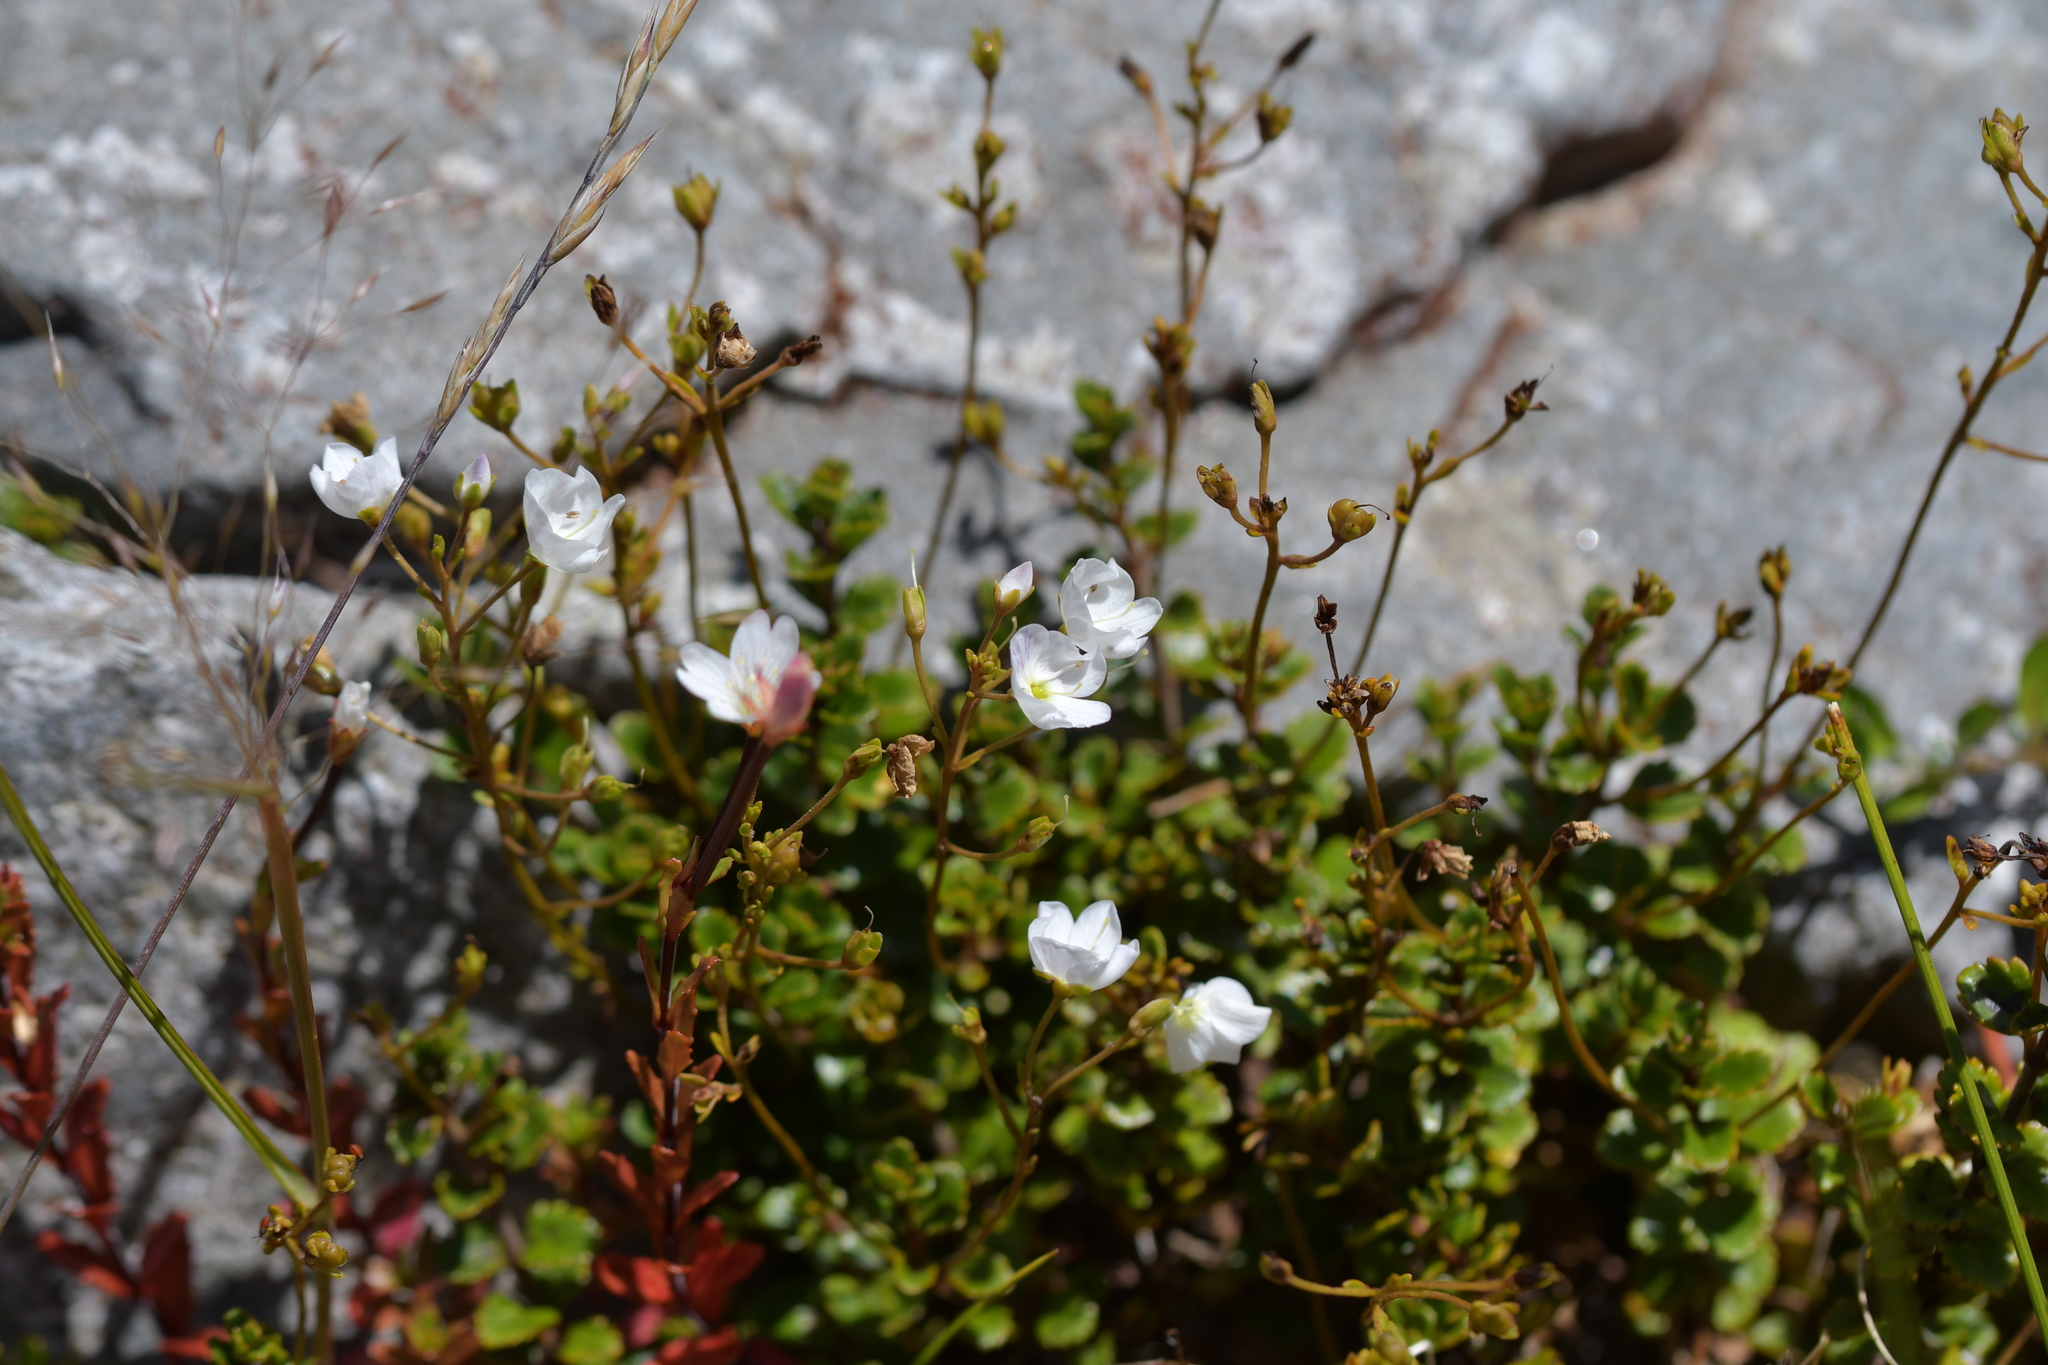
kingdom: Plantae
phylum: Tracheophyta
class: Magnoliopsida
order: Lamiales
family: Plantaginaceae
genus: Veronica
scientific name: Veronica lyallii
